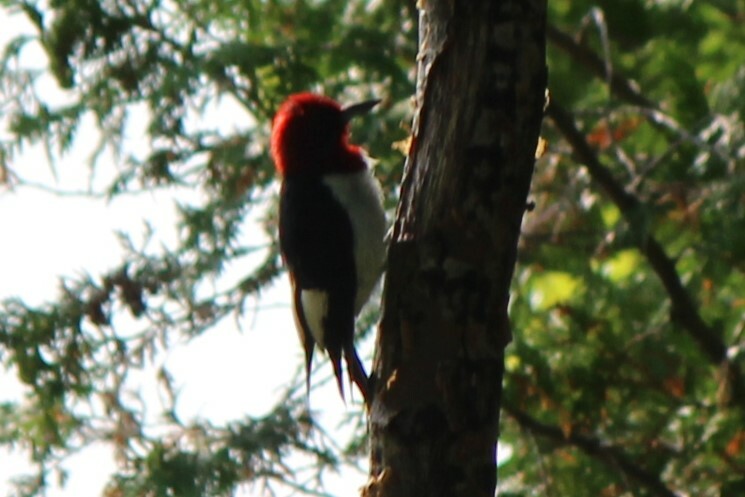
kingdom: Animalia
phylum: Chordata
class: Aves
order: Piciformes
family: Picidae
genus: Melanerpes
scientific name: Melanerpes erythrocephalus
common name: Red-headed woodpecker
